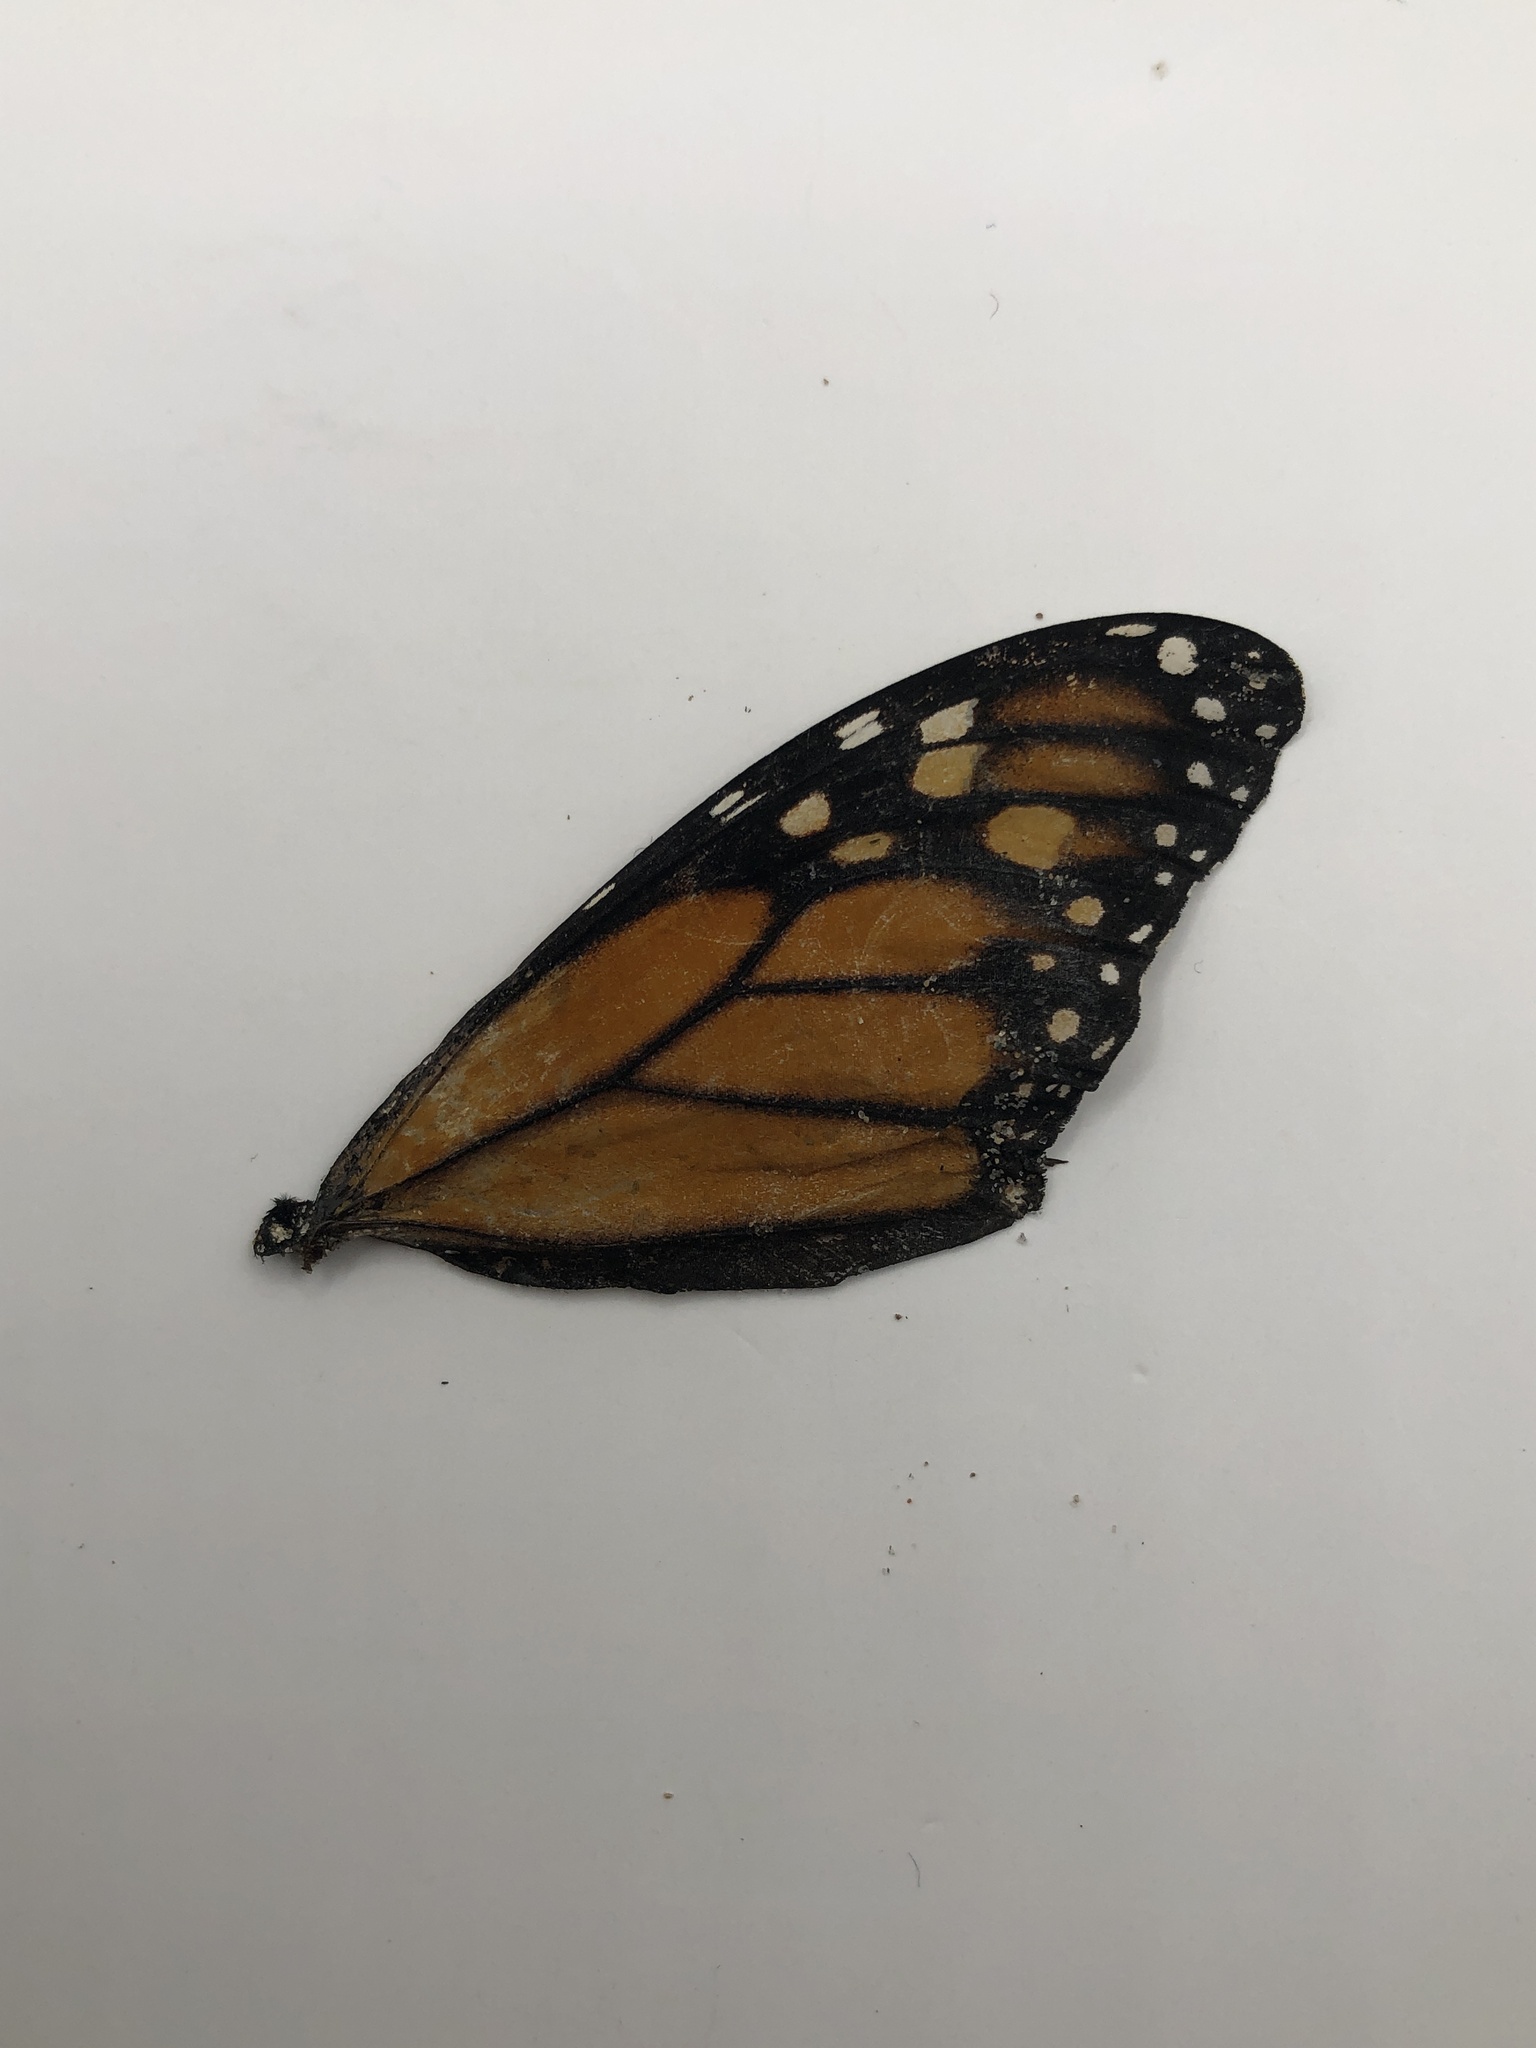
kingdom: Animalia
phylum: Arthropoda
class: Insecta
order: Lepidoptera
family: Nymphalidae
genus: Danaus
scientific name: Danaus plexippus
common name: Monarch
